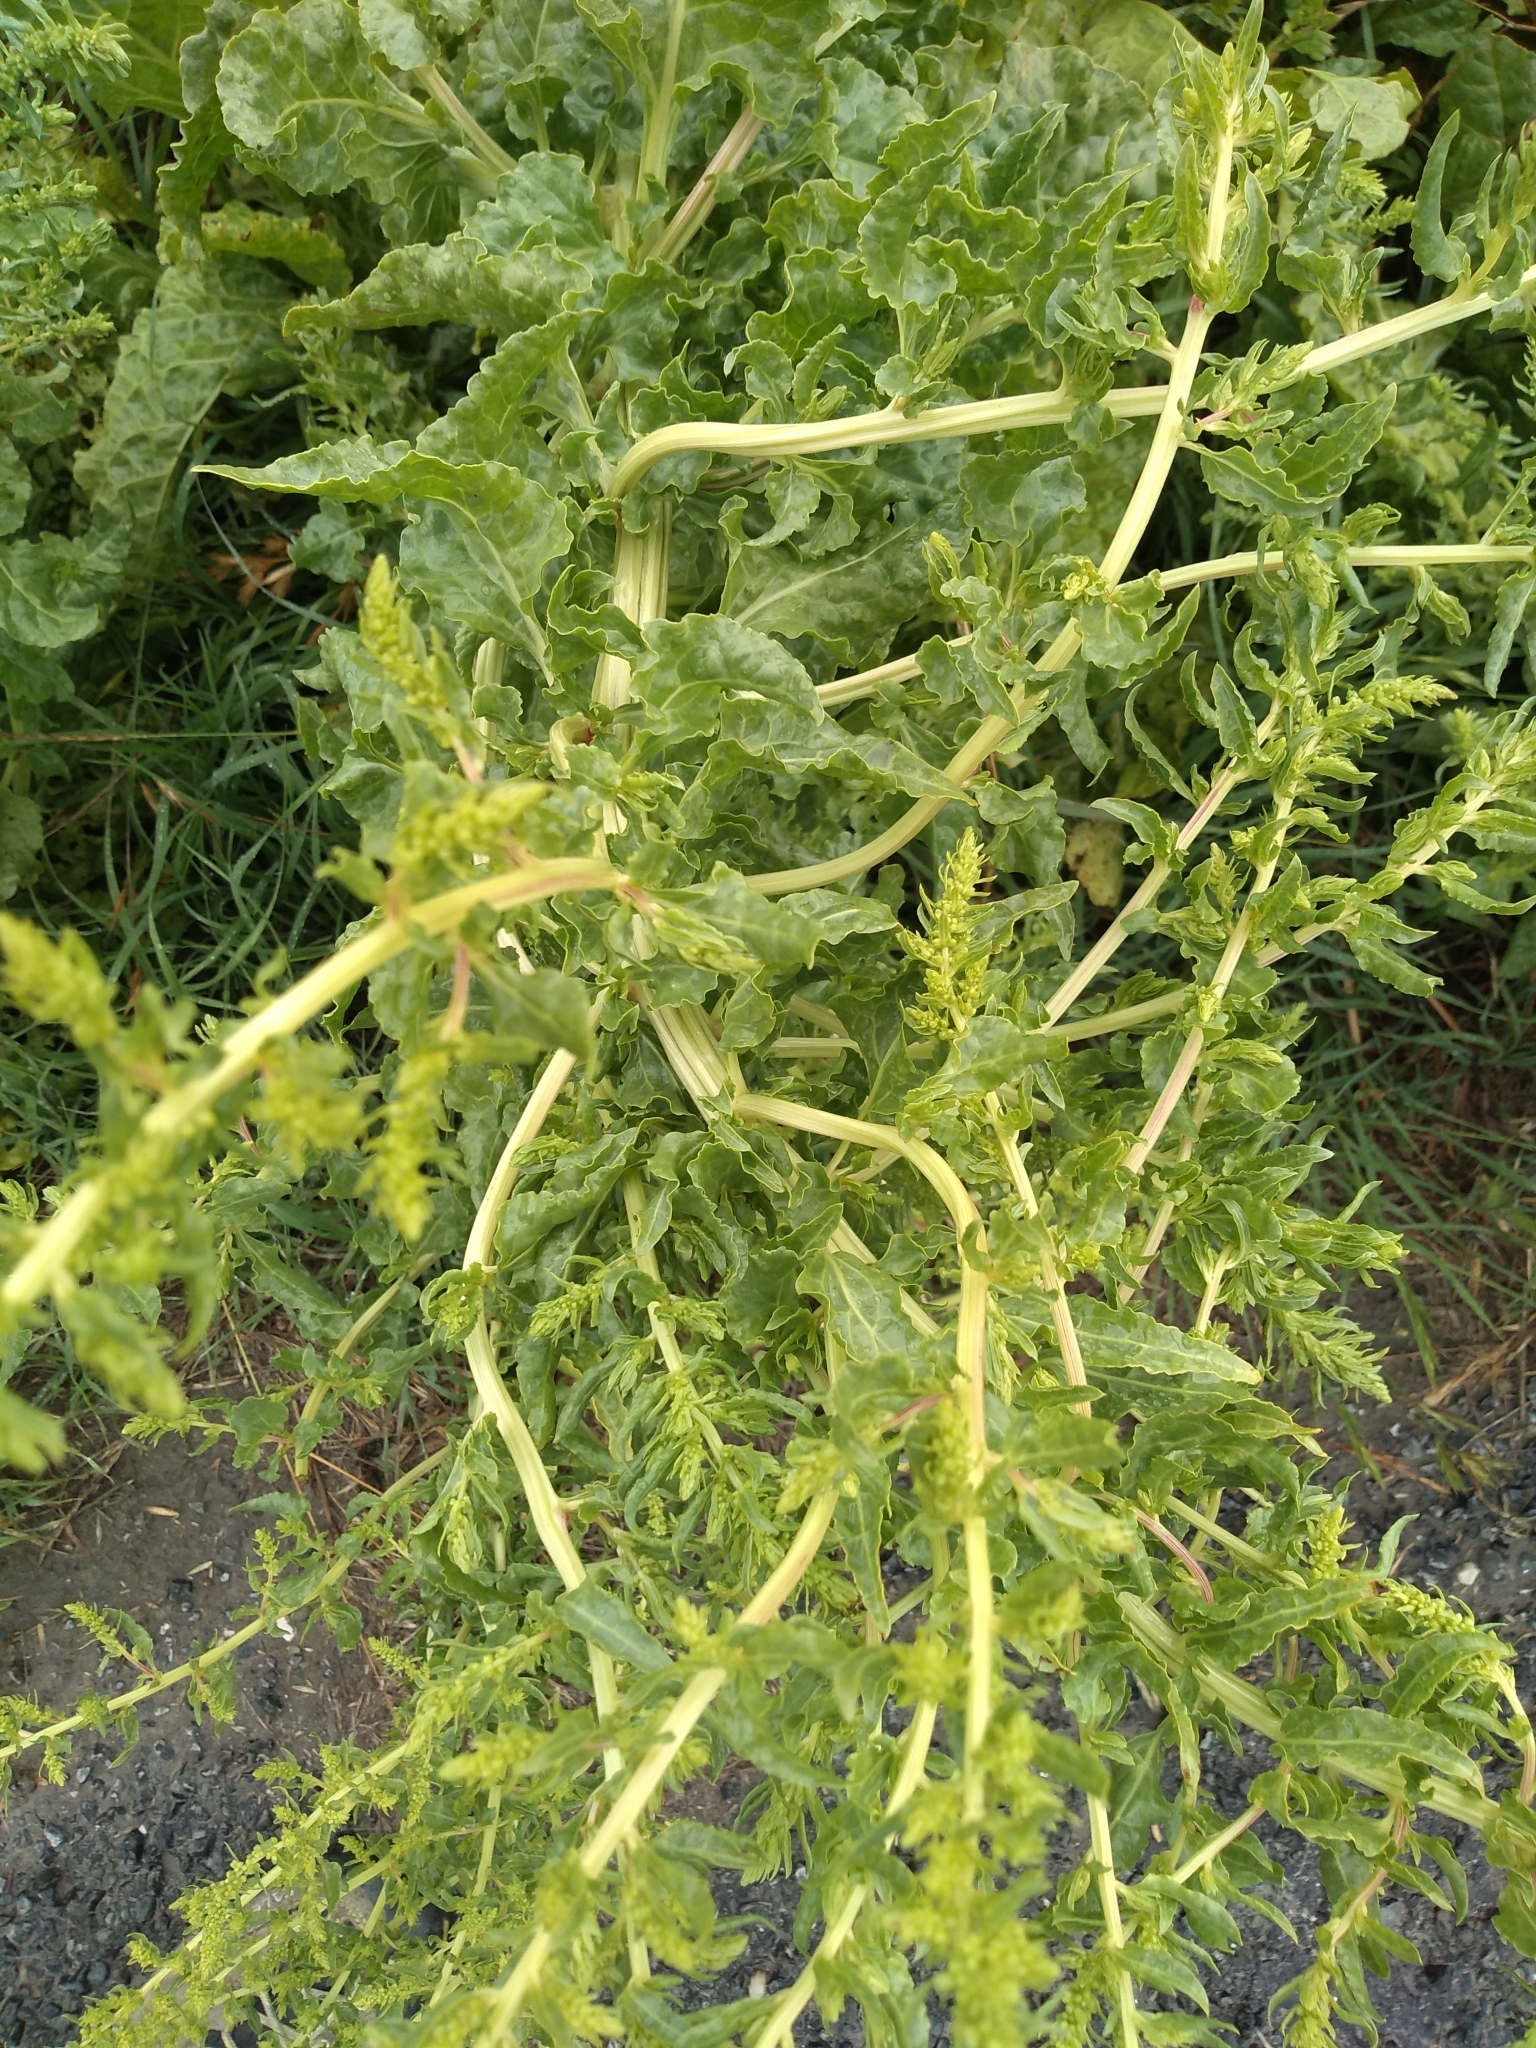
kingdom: Plantae
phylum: Tracheophyta
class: Magnoliopsida
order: Caryophyllales
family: Amaranthaceae
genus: Beta
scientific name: Beta vulgaris
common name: Beet
